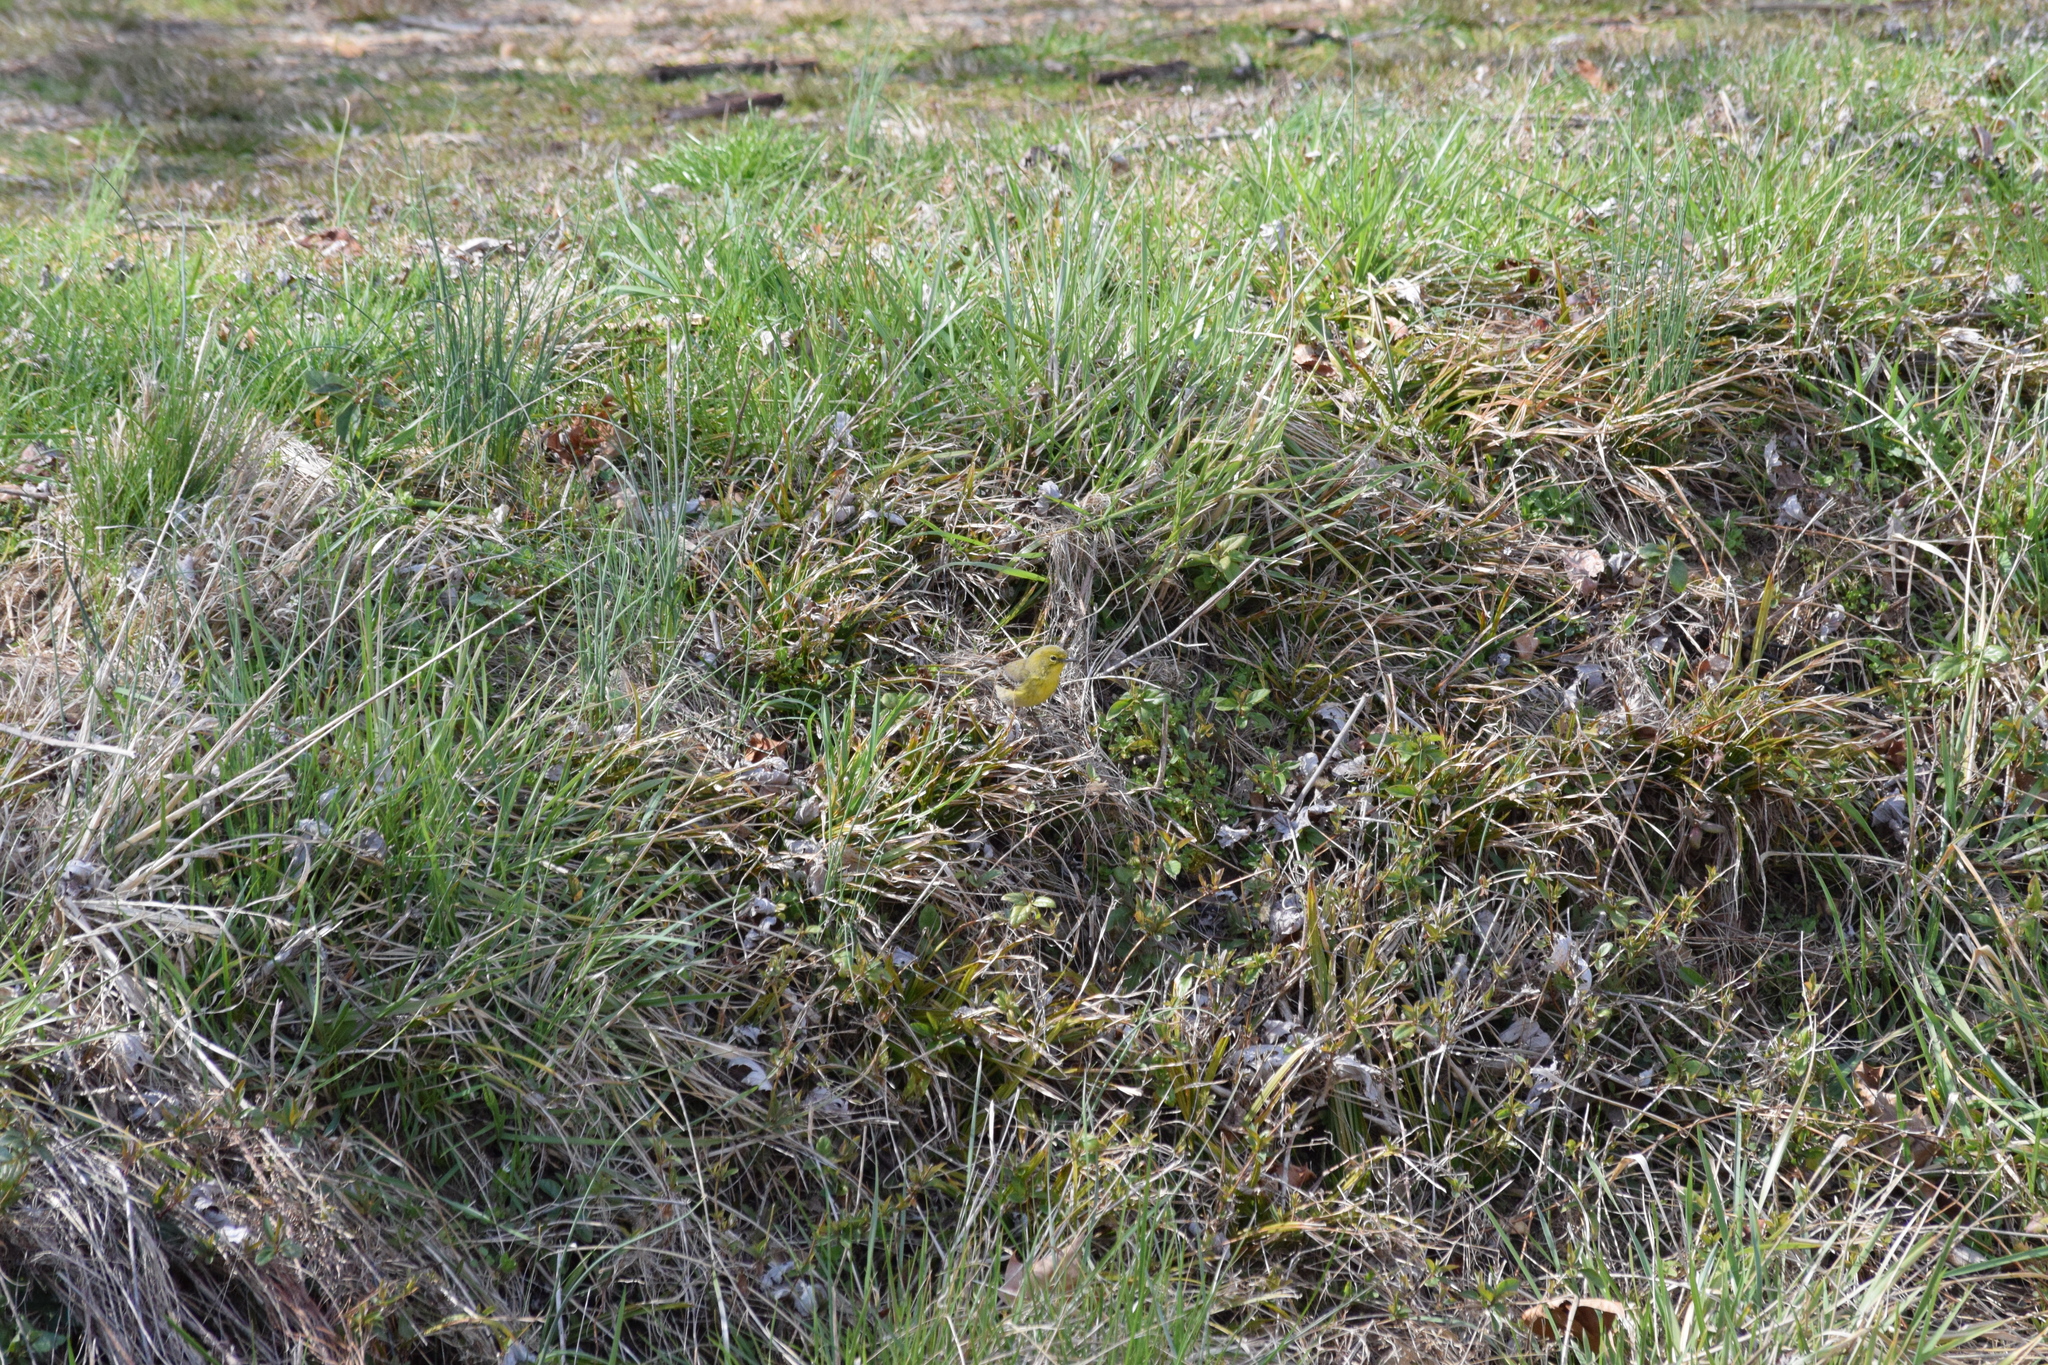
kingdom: Animalia
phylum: Chordata
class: Aves
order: Passeriformes
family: Parulidae
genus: Setophaga
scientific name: Setophaga pinus
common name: Pine warbler
